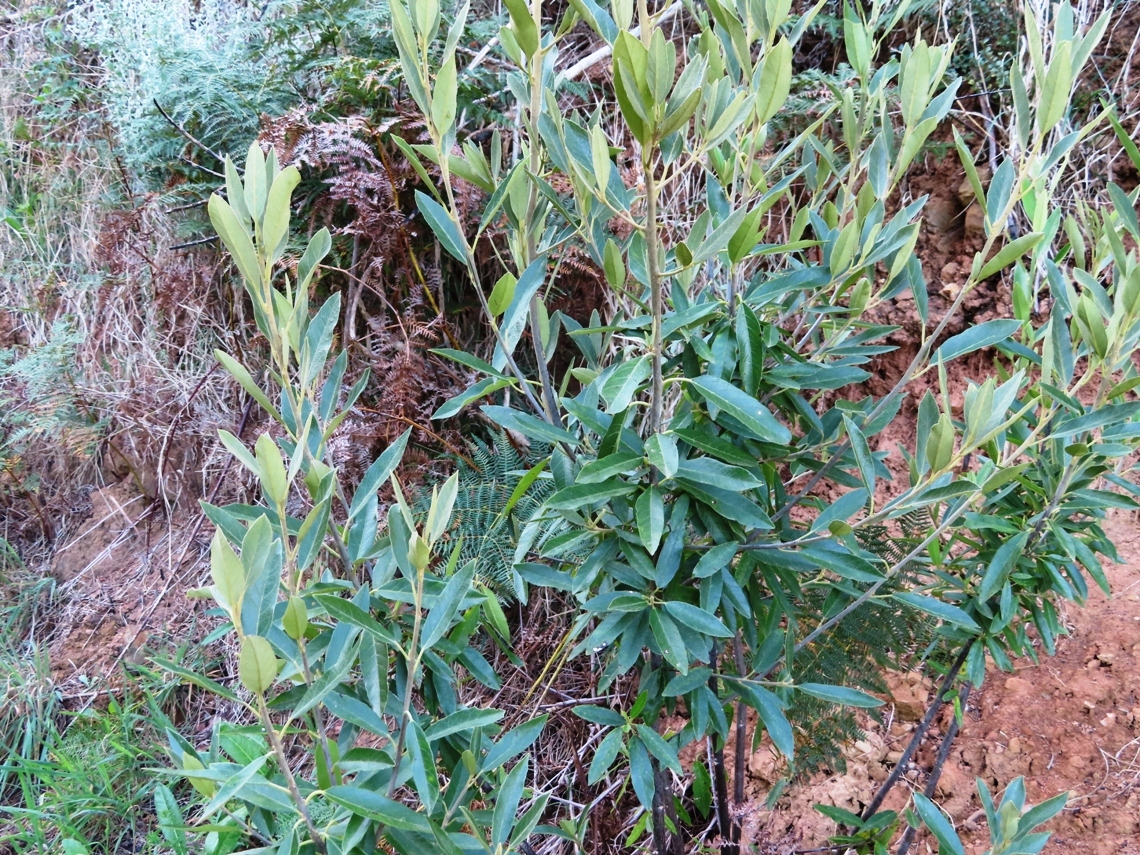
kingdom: Plantae
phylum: Tracheophyta
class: Magnoliopsida
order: Malpighiales
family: Achariaceae
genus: Kiggelaria
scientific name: Kiggelaria africana
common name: Wild peach
